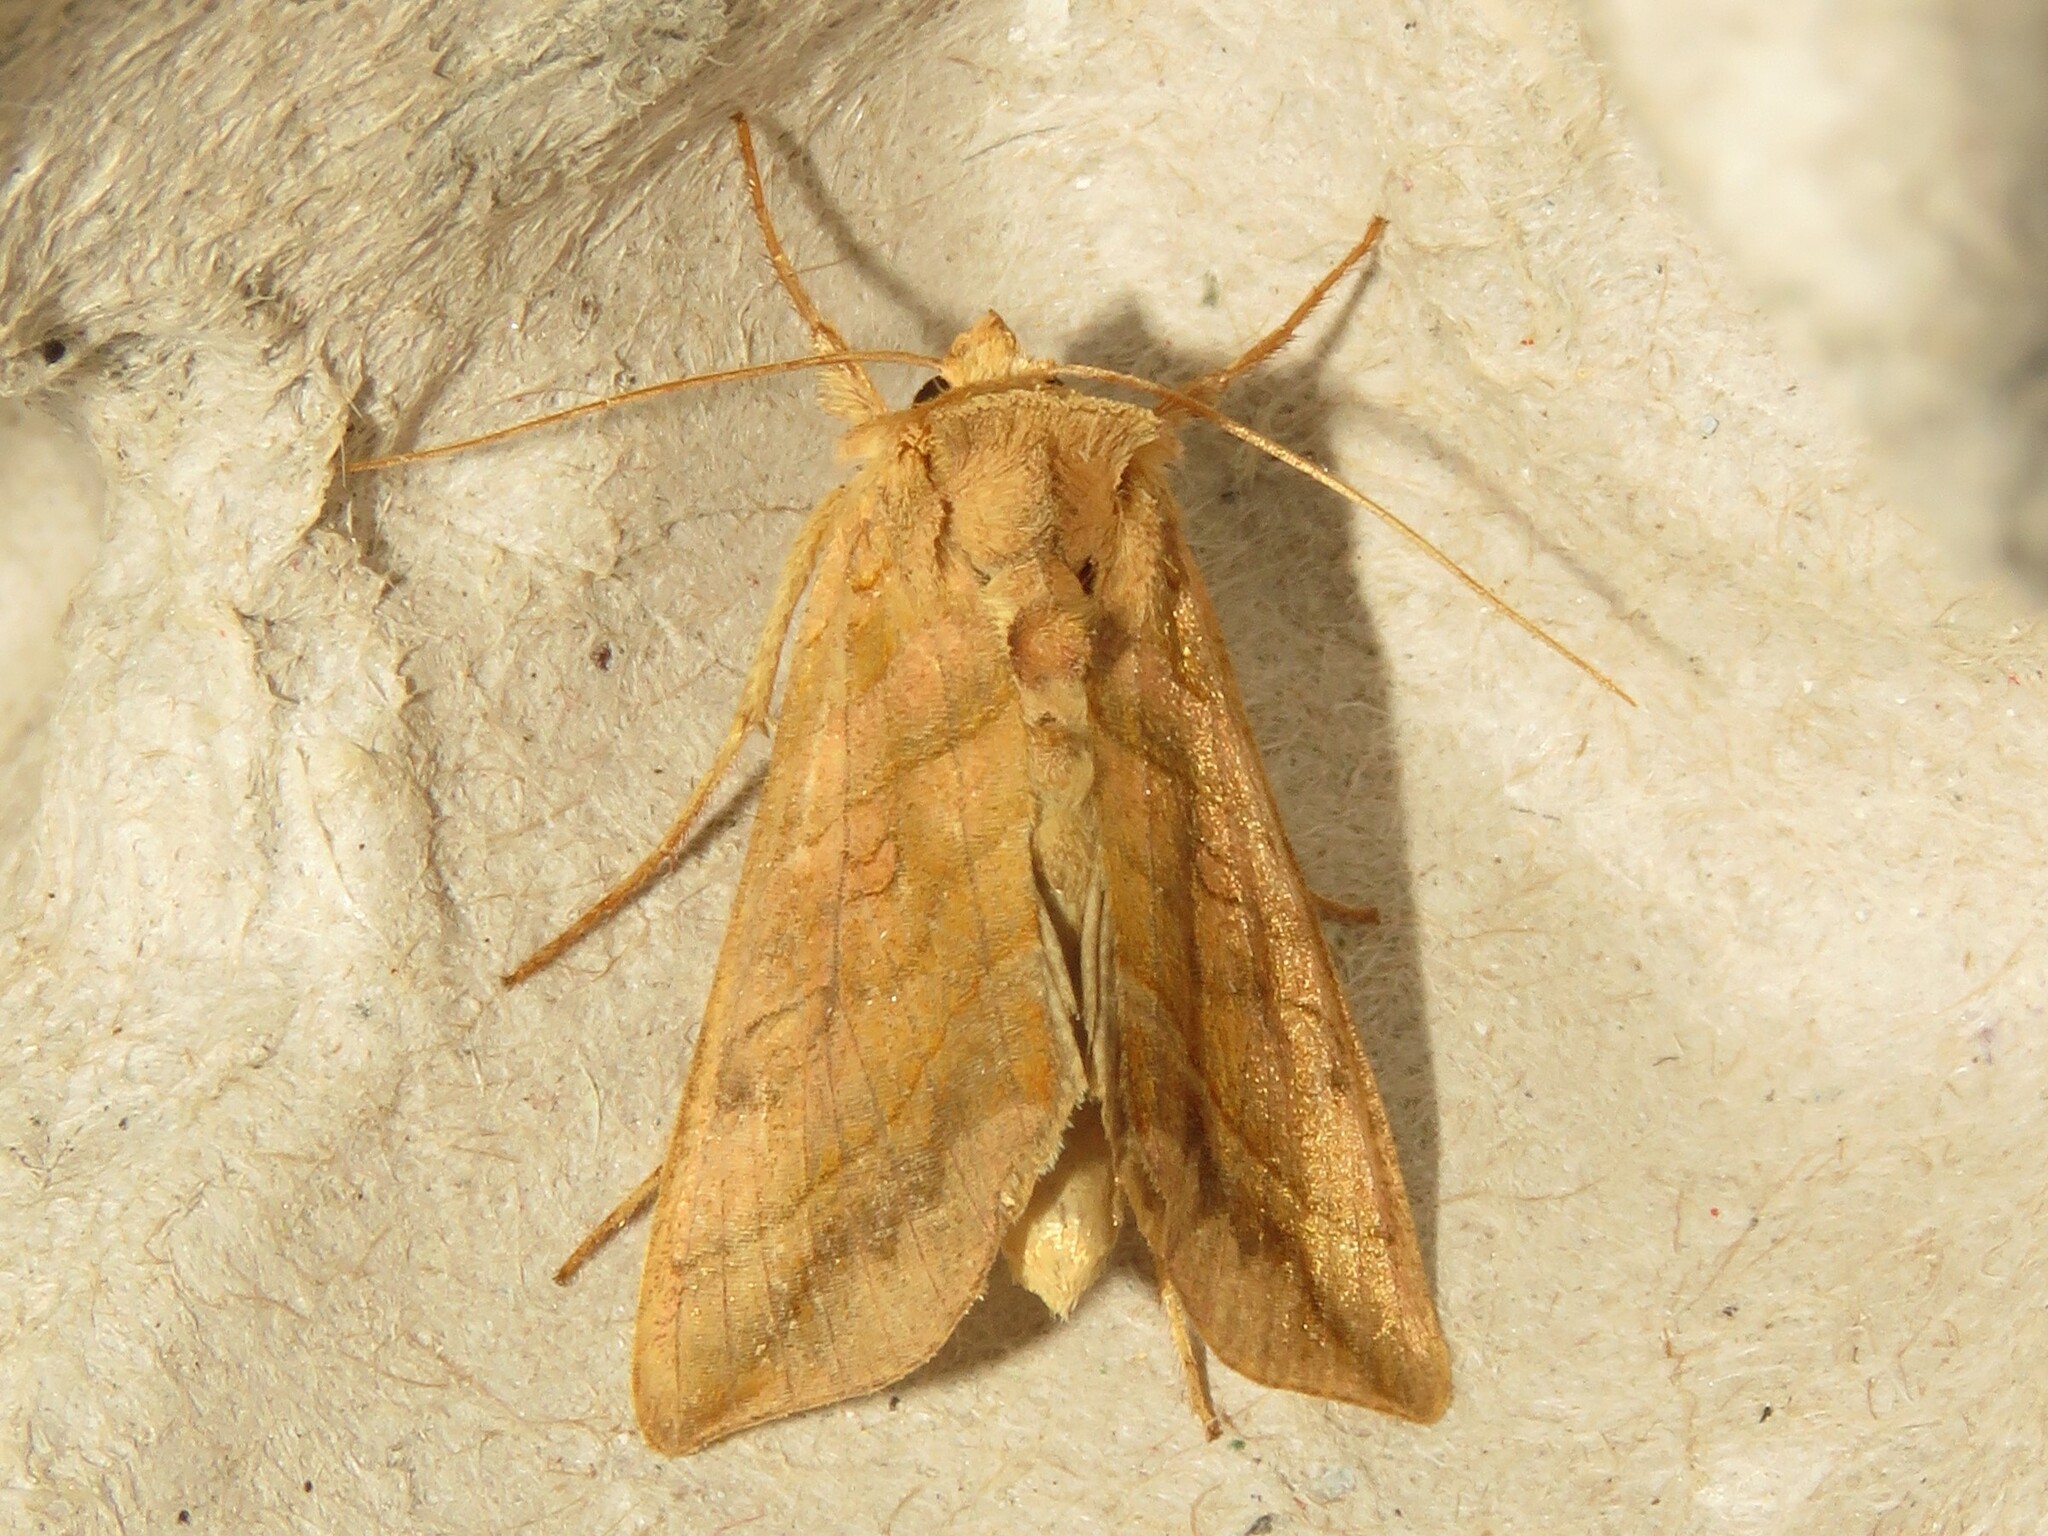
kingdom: Animalia
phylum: Arthropoda
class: Insecta
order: Lepidoptera
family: Noctuidae
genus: Diachrysia
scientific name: Diachrysia aereoides
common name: Dark-spotted looper moth
